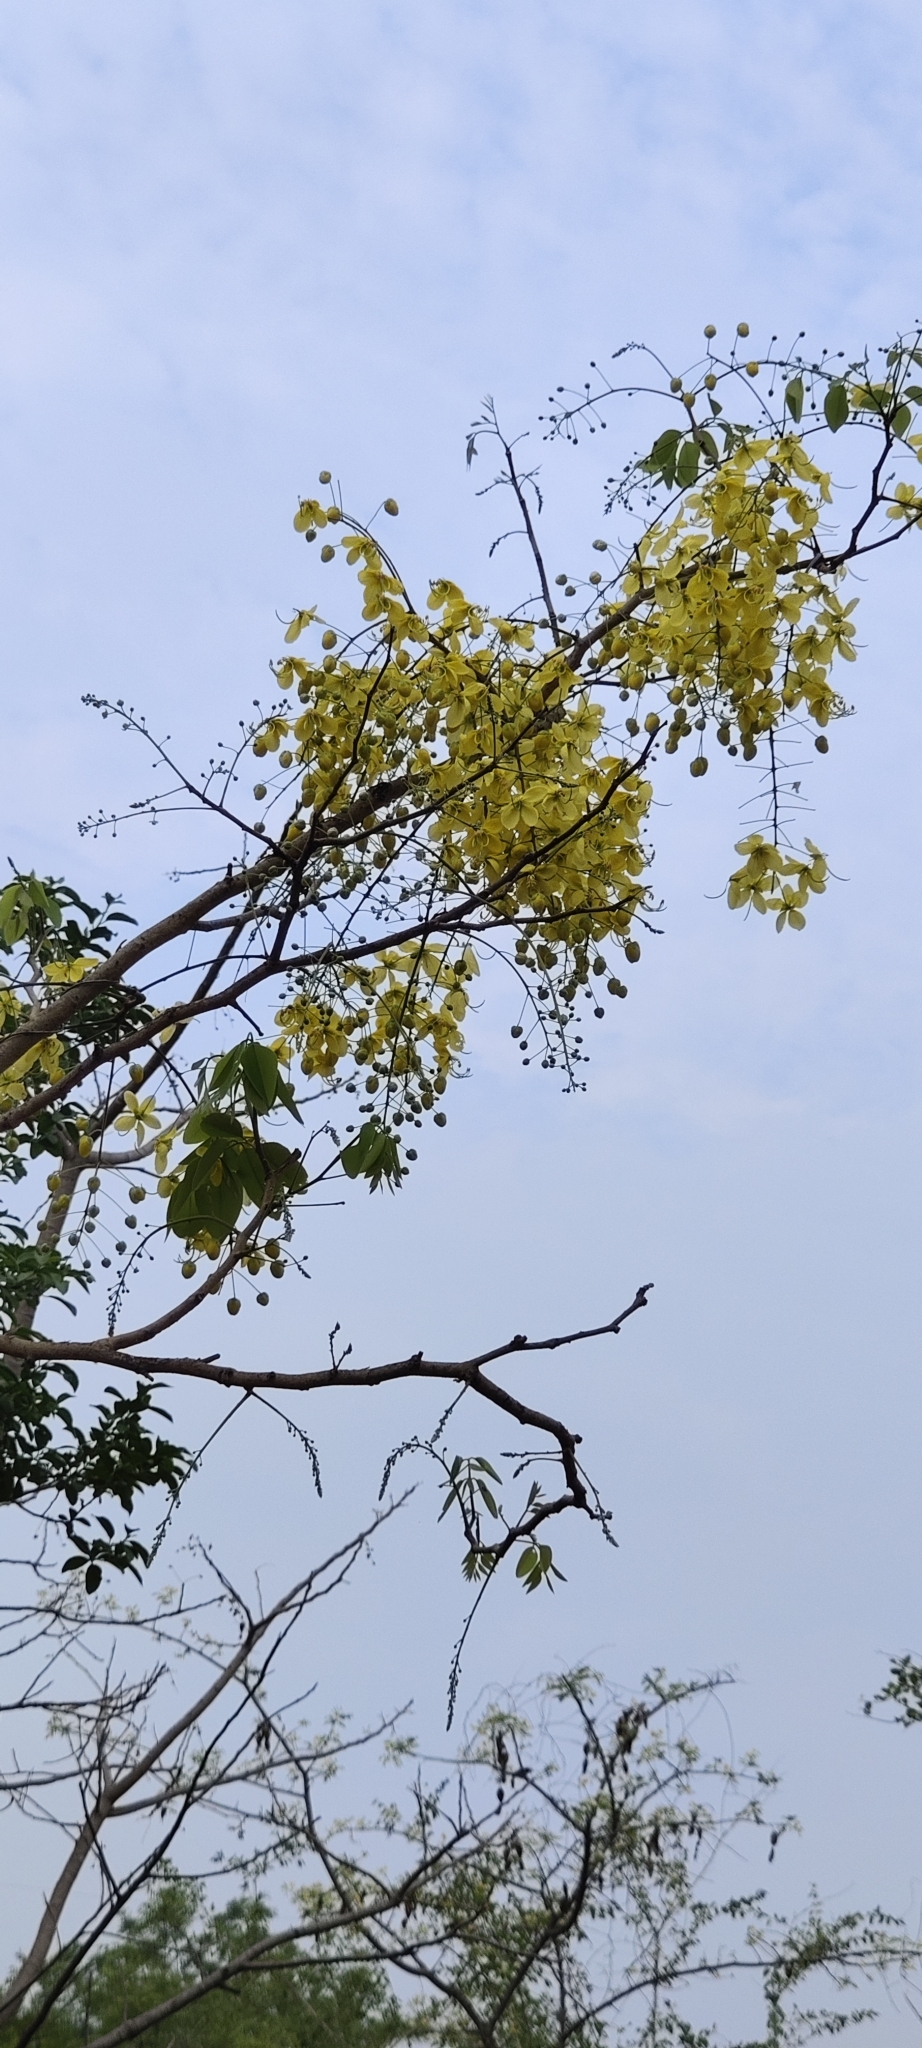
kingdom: Plantae
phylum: Tracheophyta
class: Magnoliopsida
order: Fabales
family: Fabaceae
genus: Cassia
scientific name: Cassia fistula
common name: Golden shower
